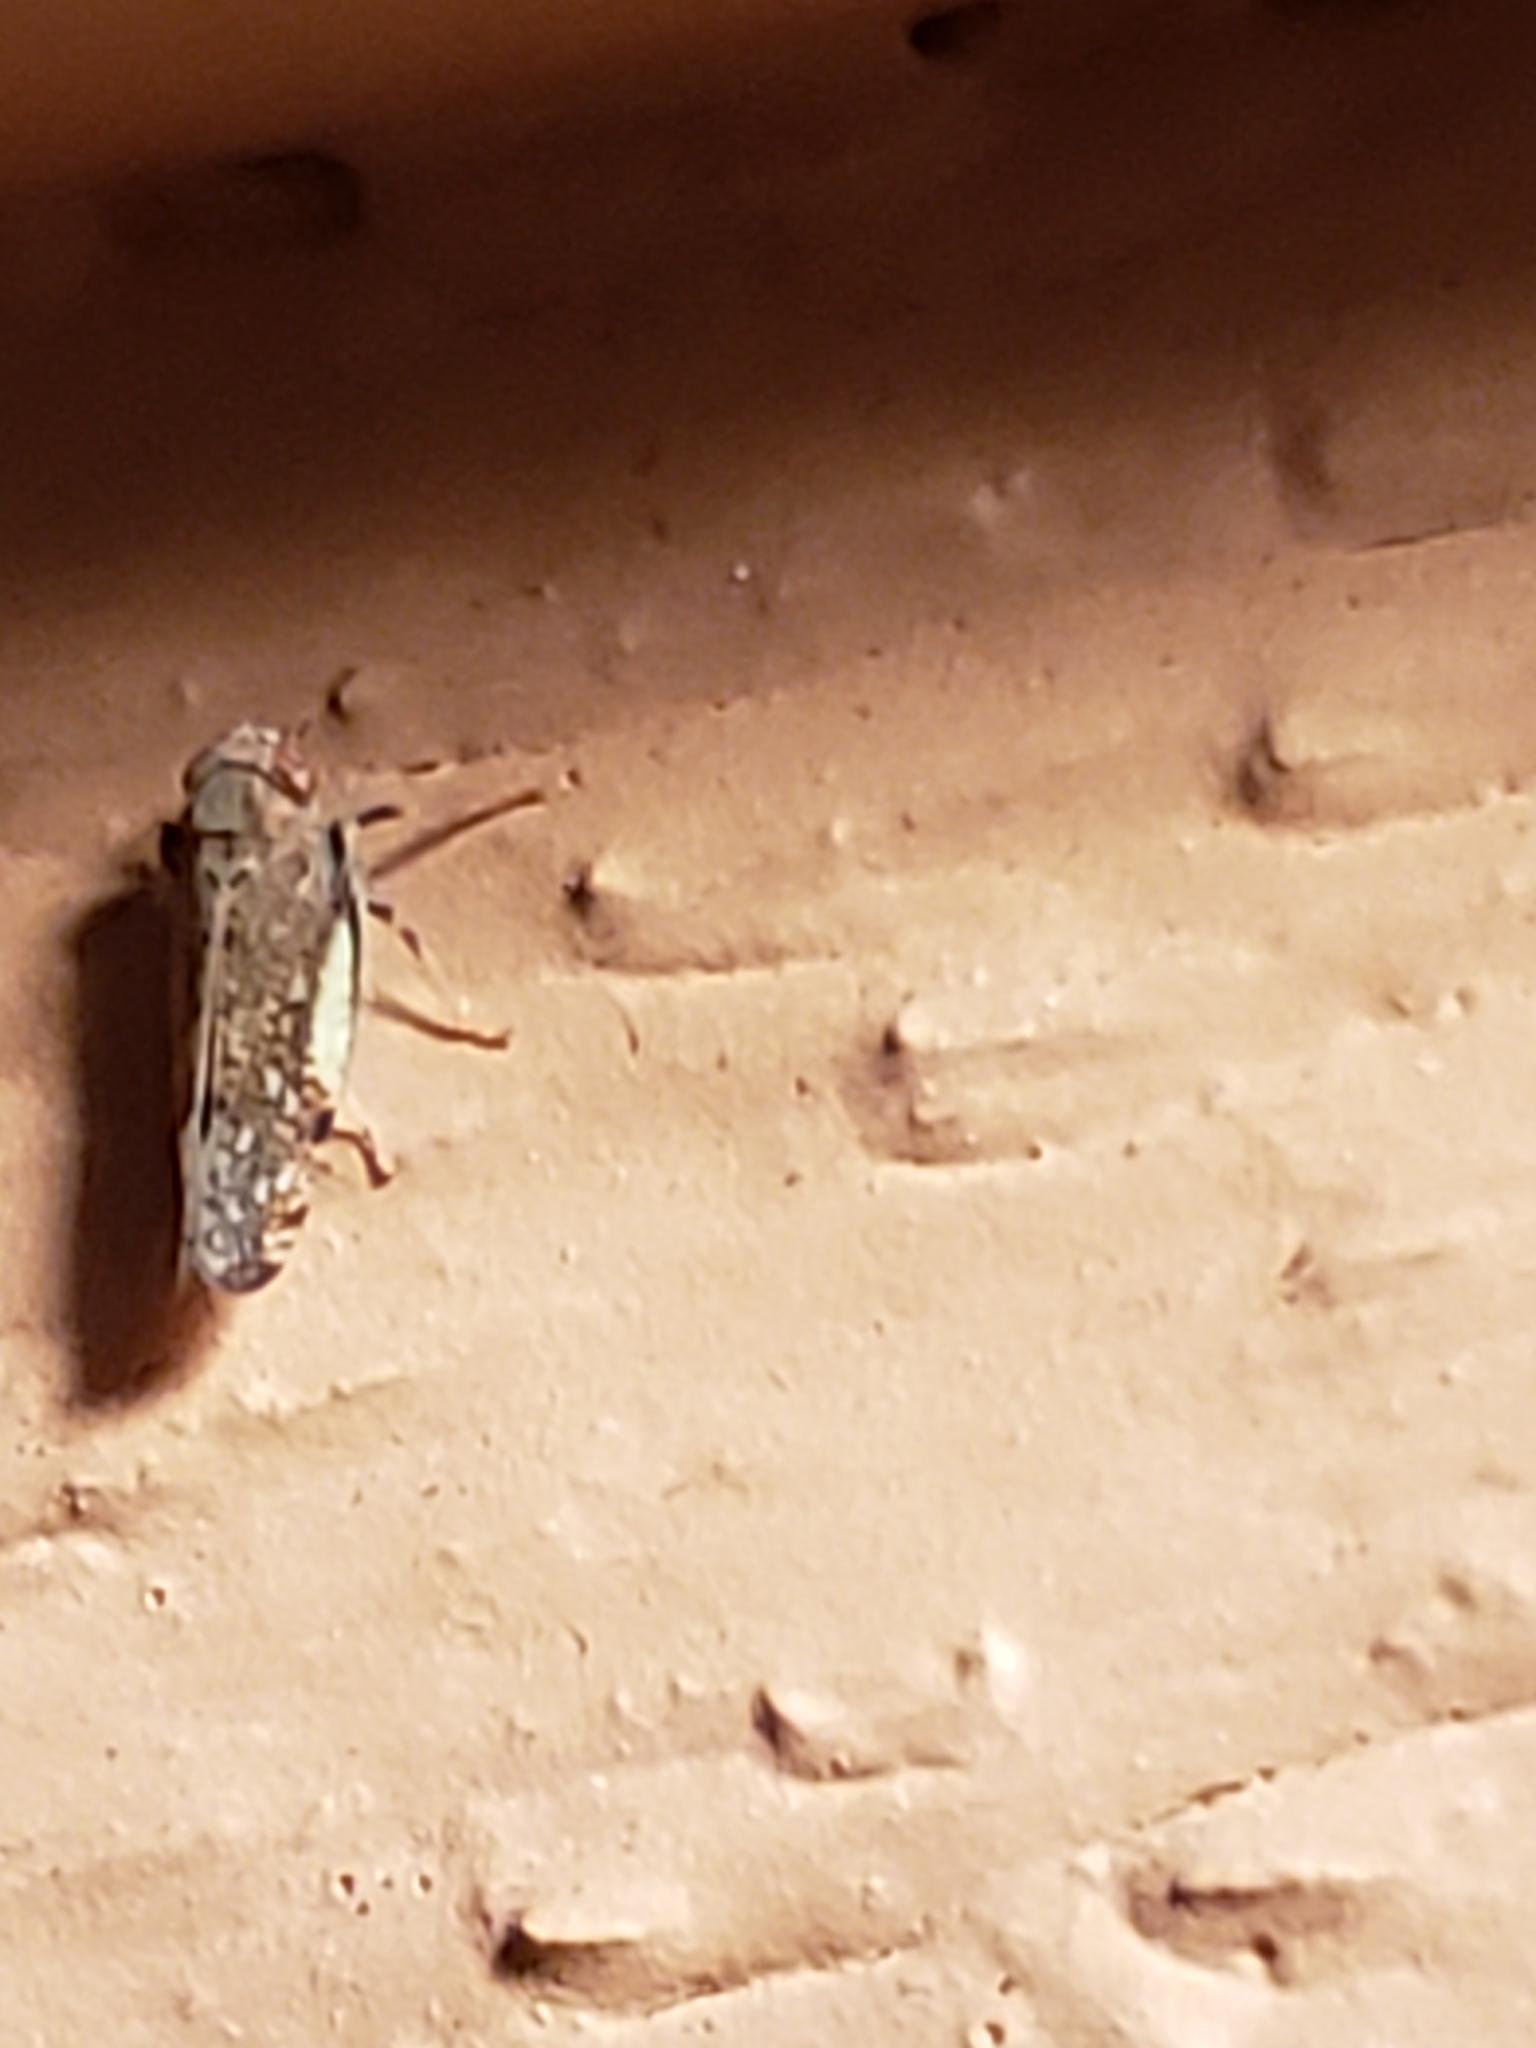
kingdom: Animalia
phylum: Arthropoda
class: Insecta
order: Hemiptera
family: Cicadellidae
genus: Orientus
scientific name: Orientus ishidae
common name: Japanese leafhopper
